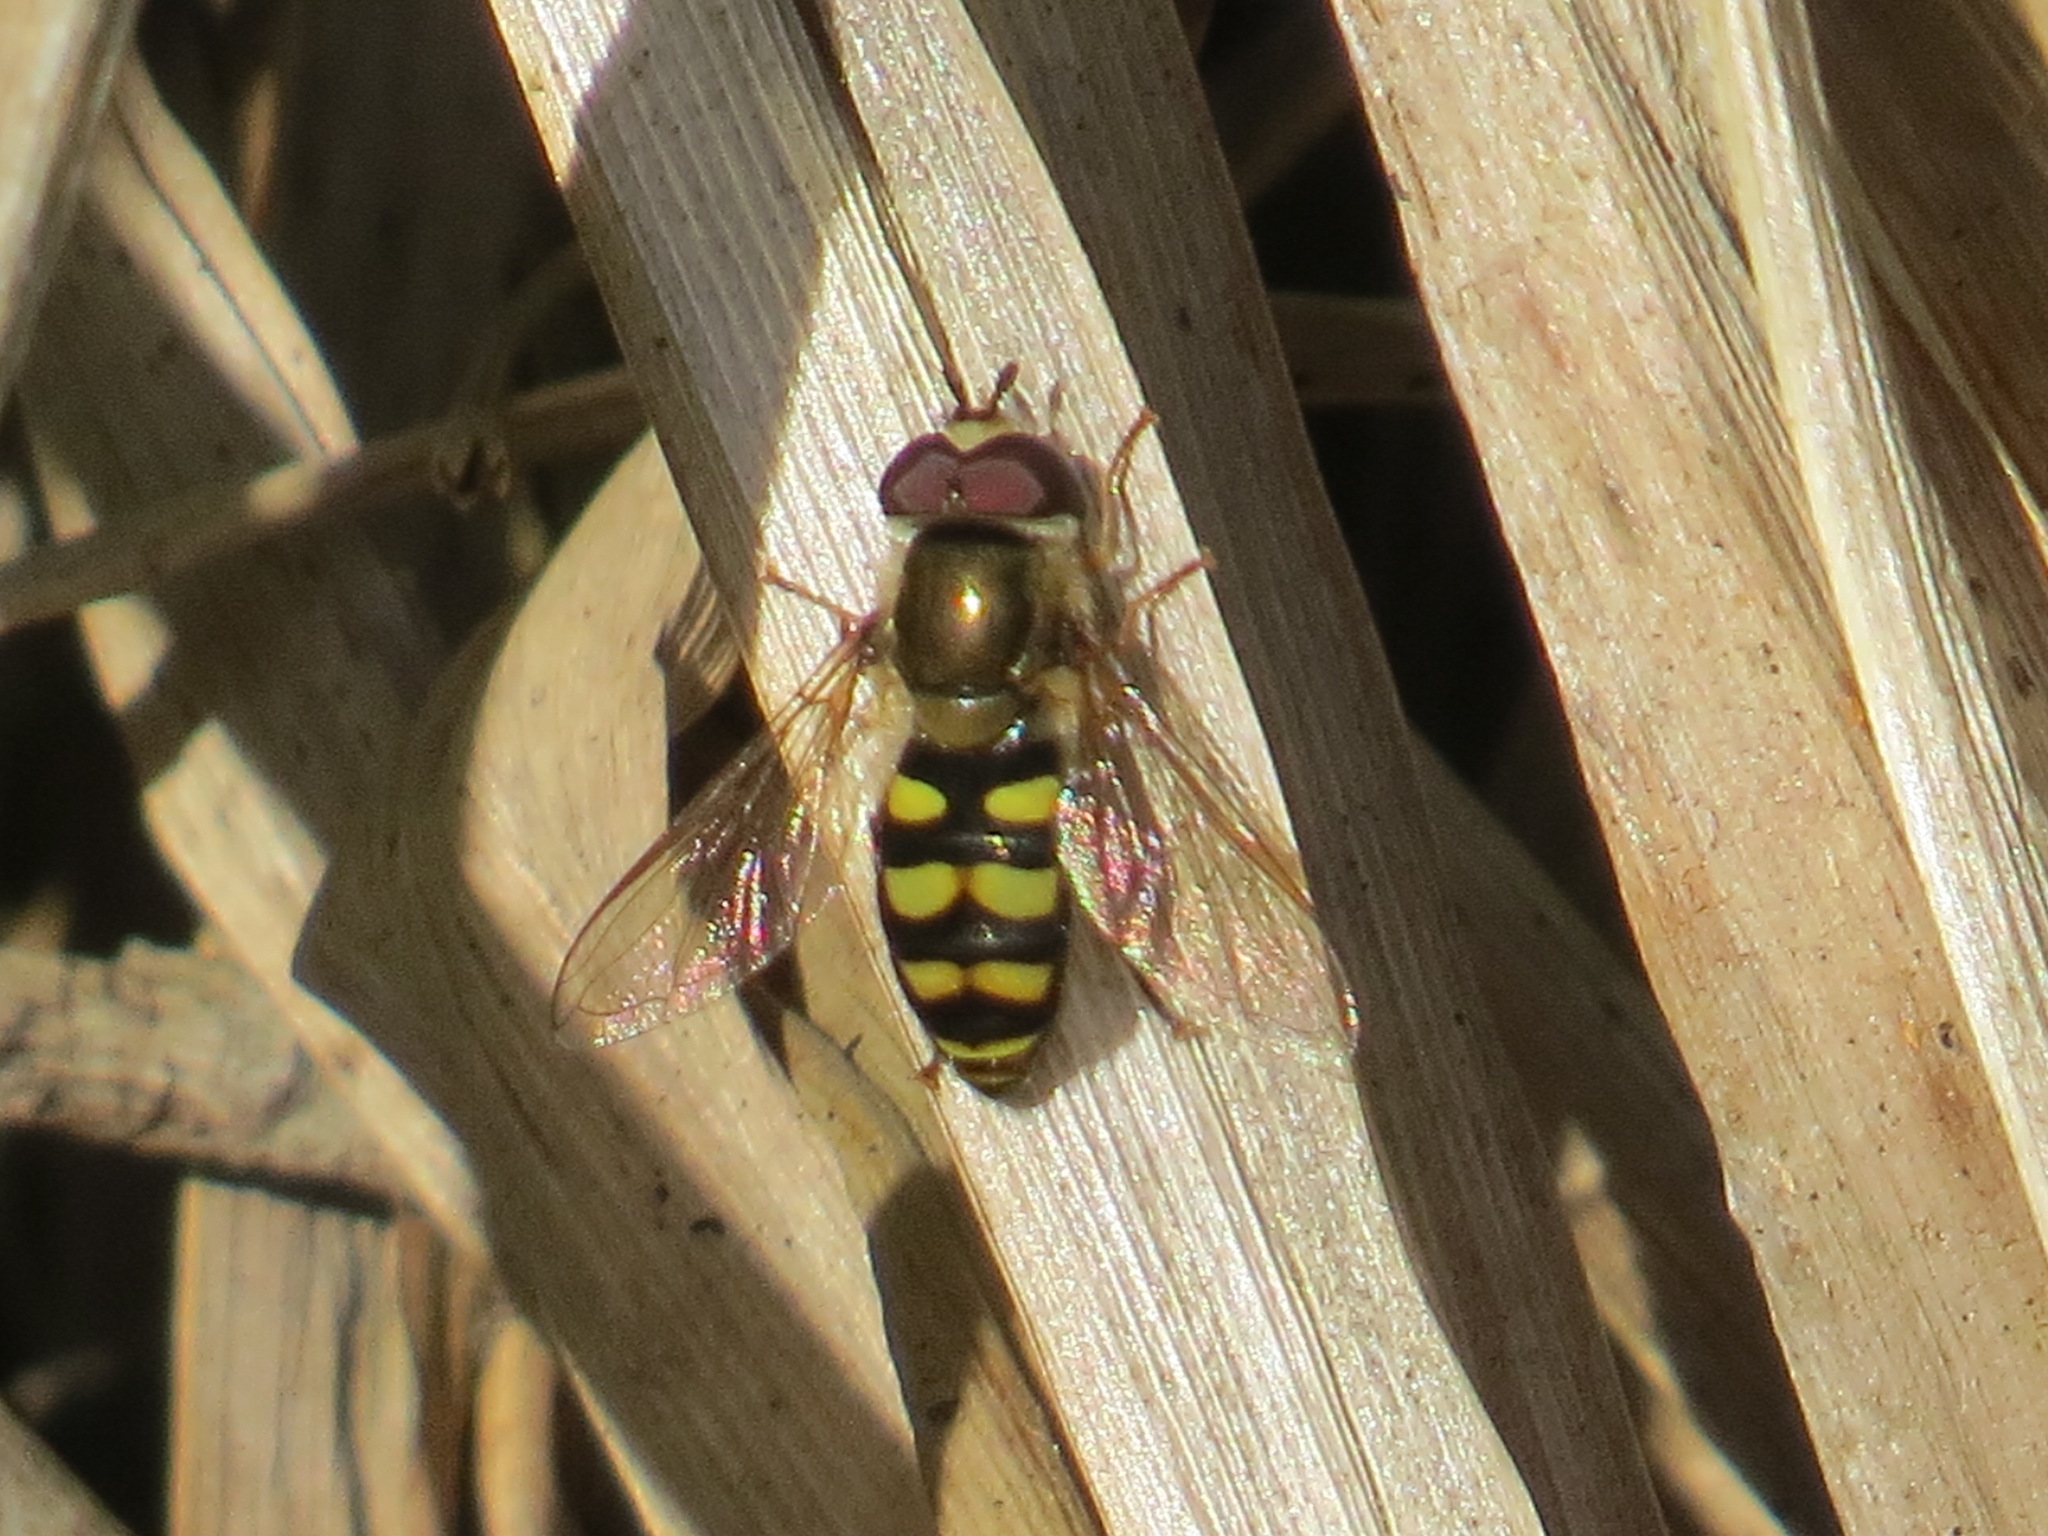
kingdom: Animalia
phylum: Arthropoda
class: Insecta
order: Diptera
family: Syrphidae
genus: Eupeodes
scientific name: Eupeodes fumipennis
